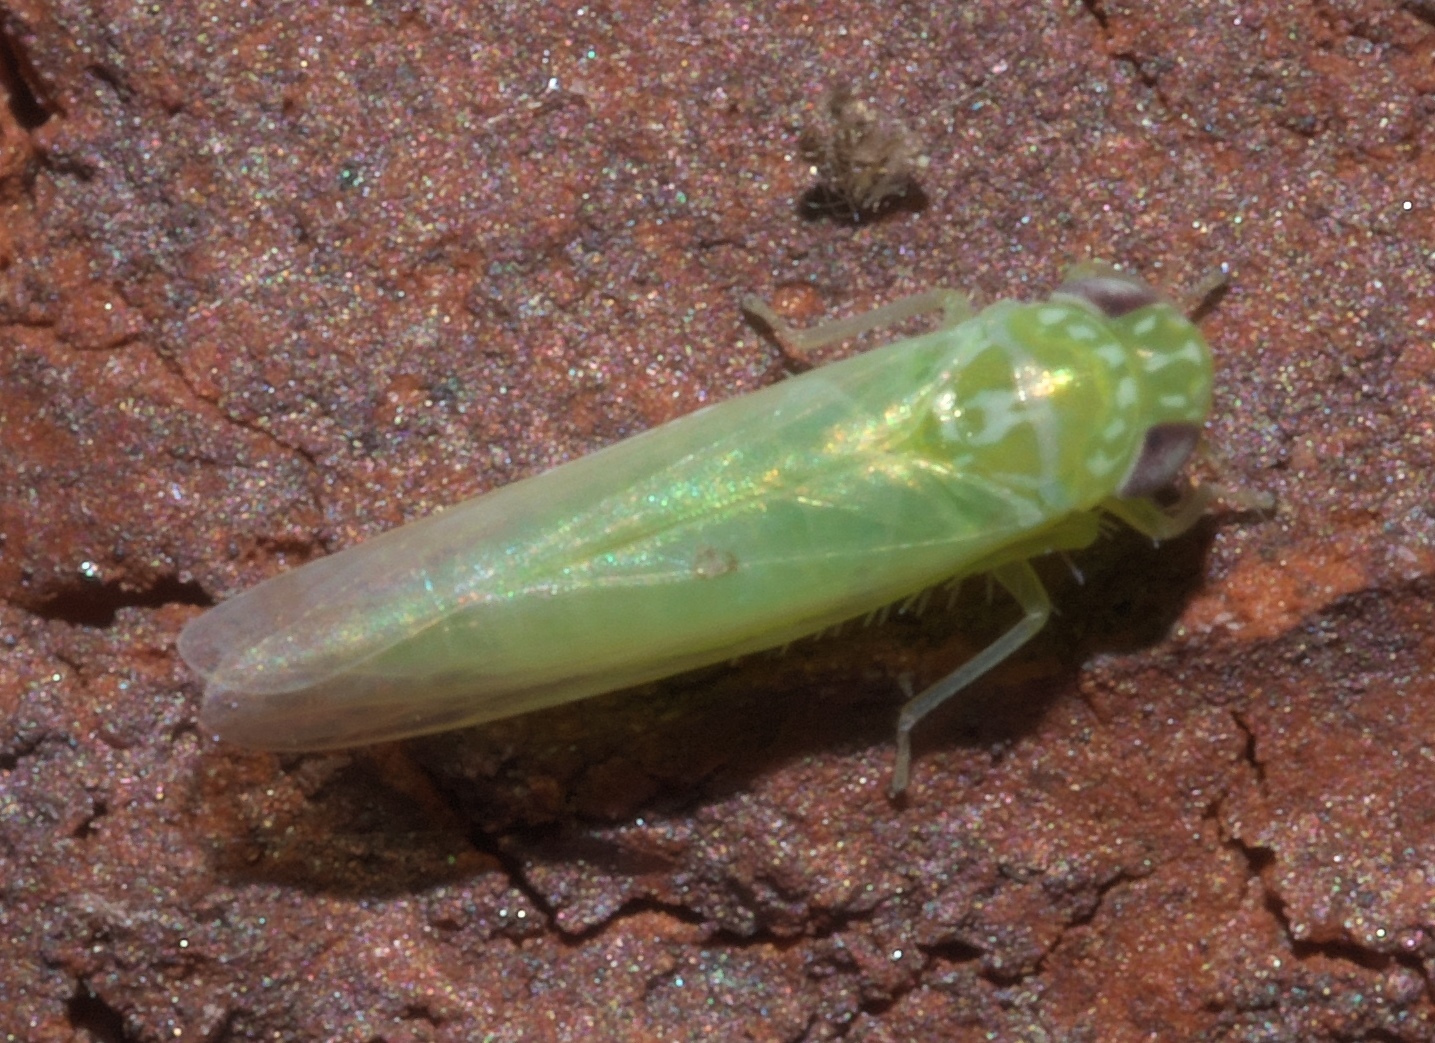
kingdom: Animalia
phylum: Arthropoda
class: Insecta
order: Hemiptera
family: Cicadellidae
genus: Empoasca
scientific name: Empoasca fabae
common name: Potato leafhopper
